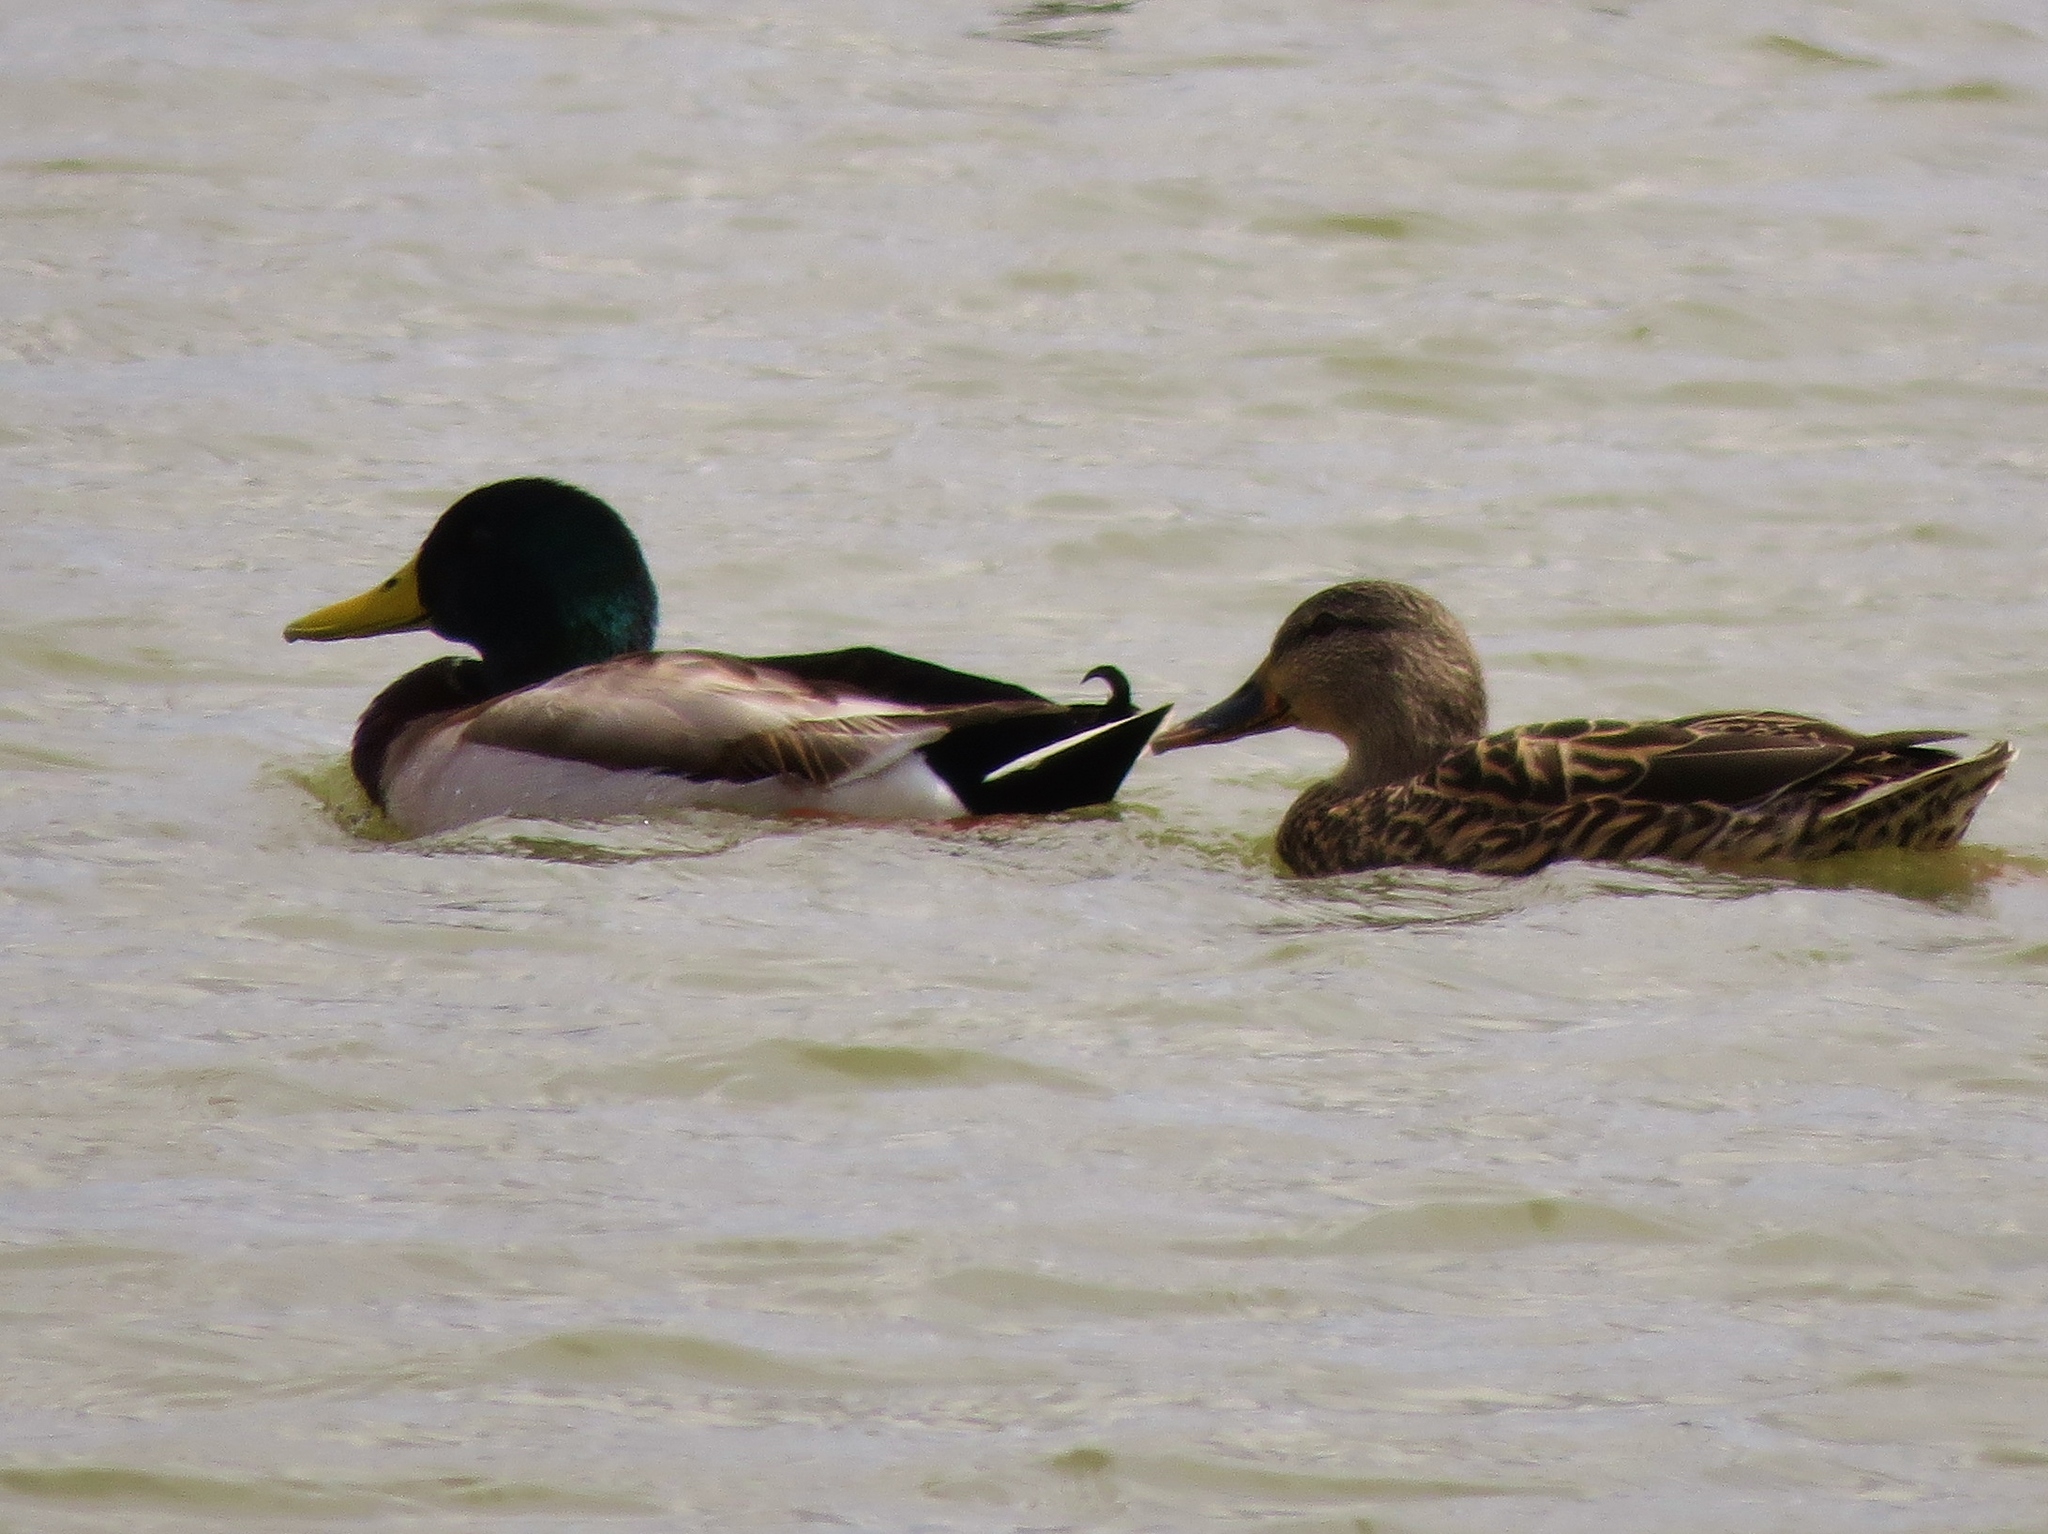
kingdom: Animalia
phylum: Chordata
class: Aves
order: Anseriformes
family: Anatidae
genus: Anas
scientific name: Anas platyrhynchos
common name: Mallard
